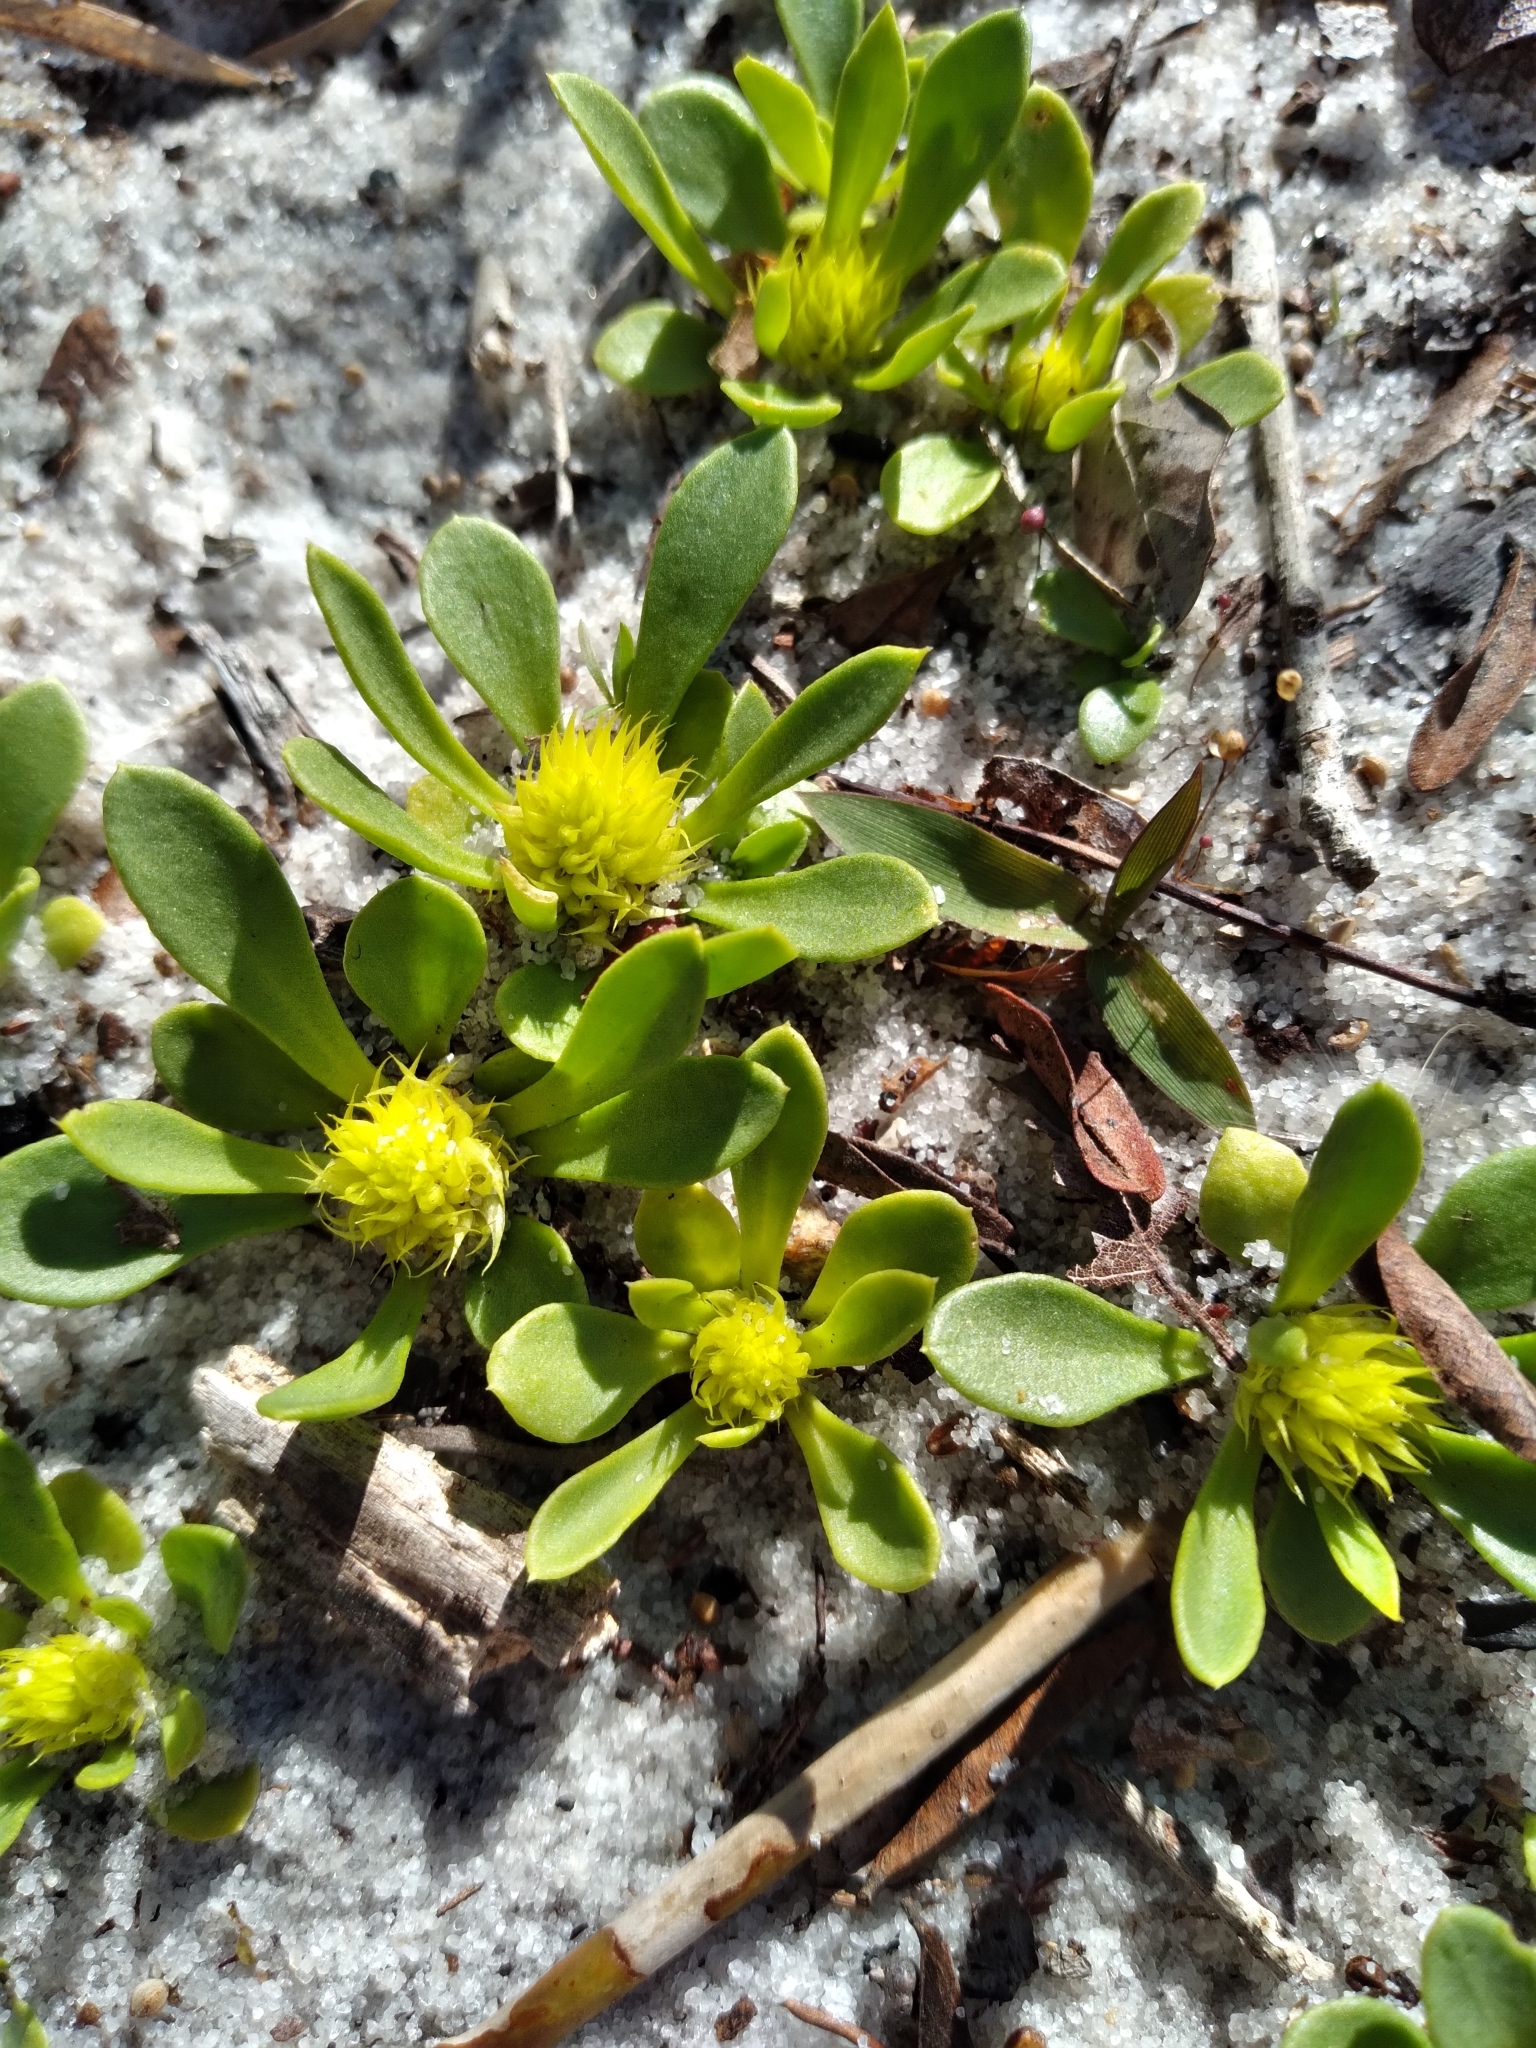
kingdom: Plantae
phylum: Tracheophyta
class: Magnoliopsida
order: Fabales
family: Polygalaceae
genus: Polygala
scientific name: Polygala nana
